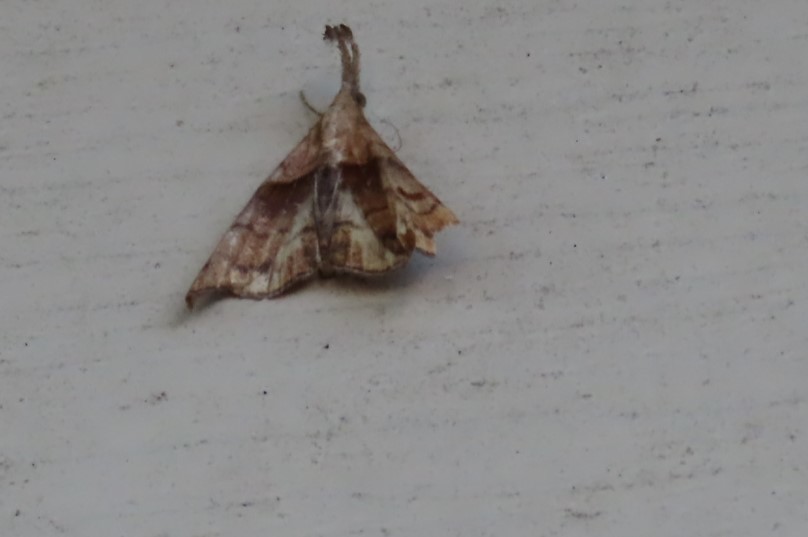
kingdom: Animalia
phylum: Arthropoda
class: Insecta
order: Lepidoptera
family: Erebidae
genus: Palthis
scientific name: Palthis angulalis
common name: Dark-spotted palthis moth
